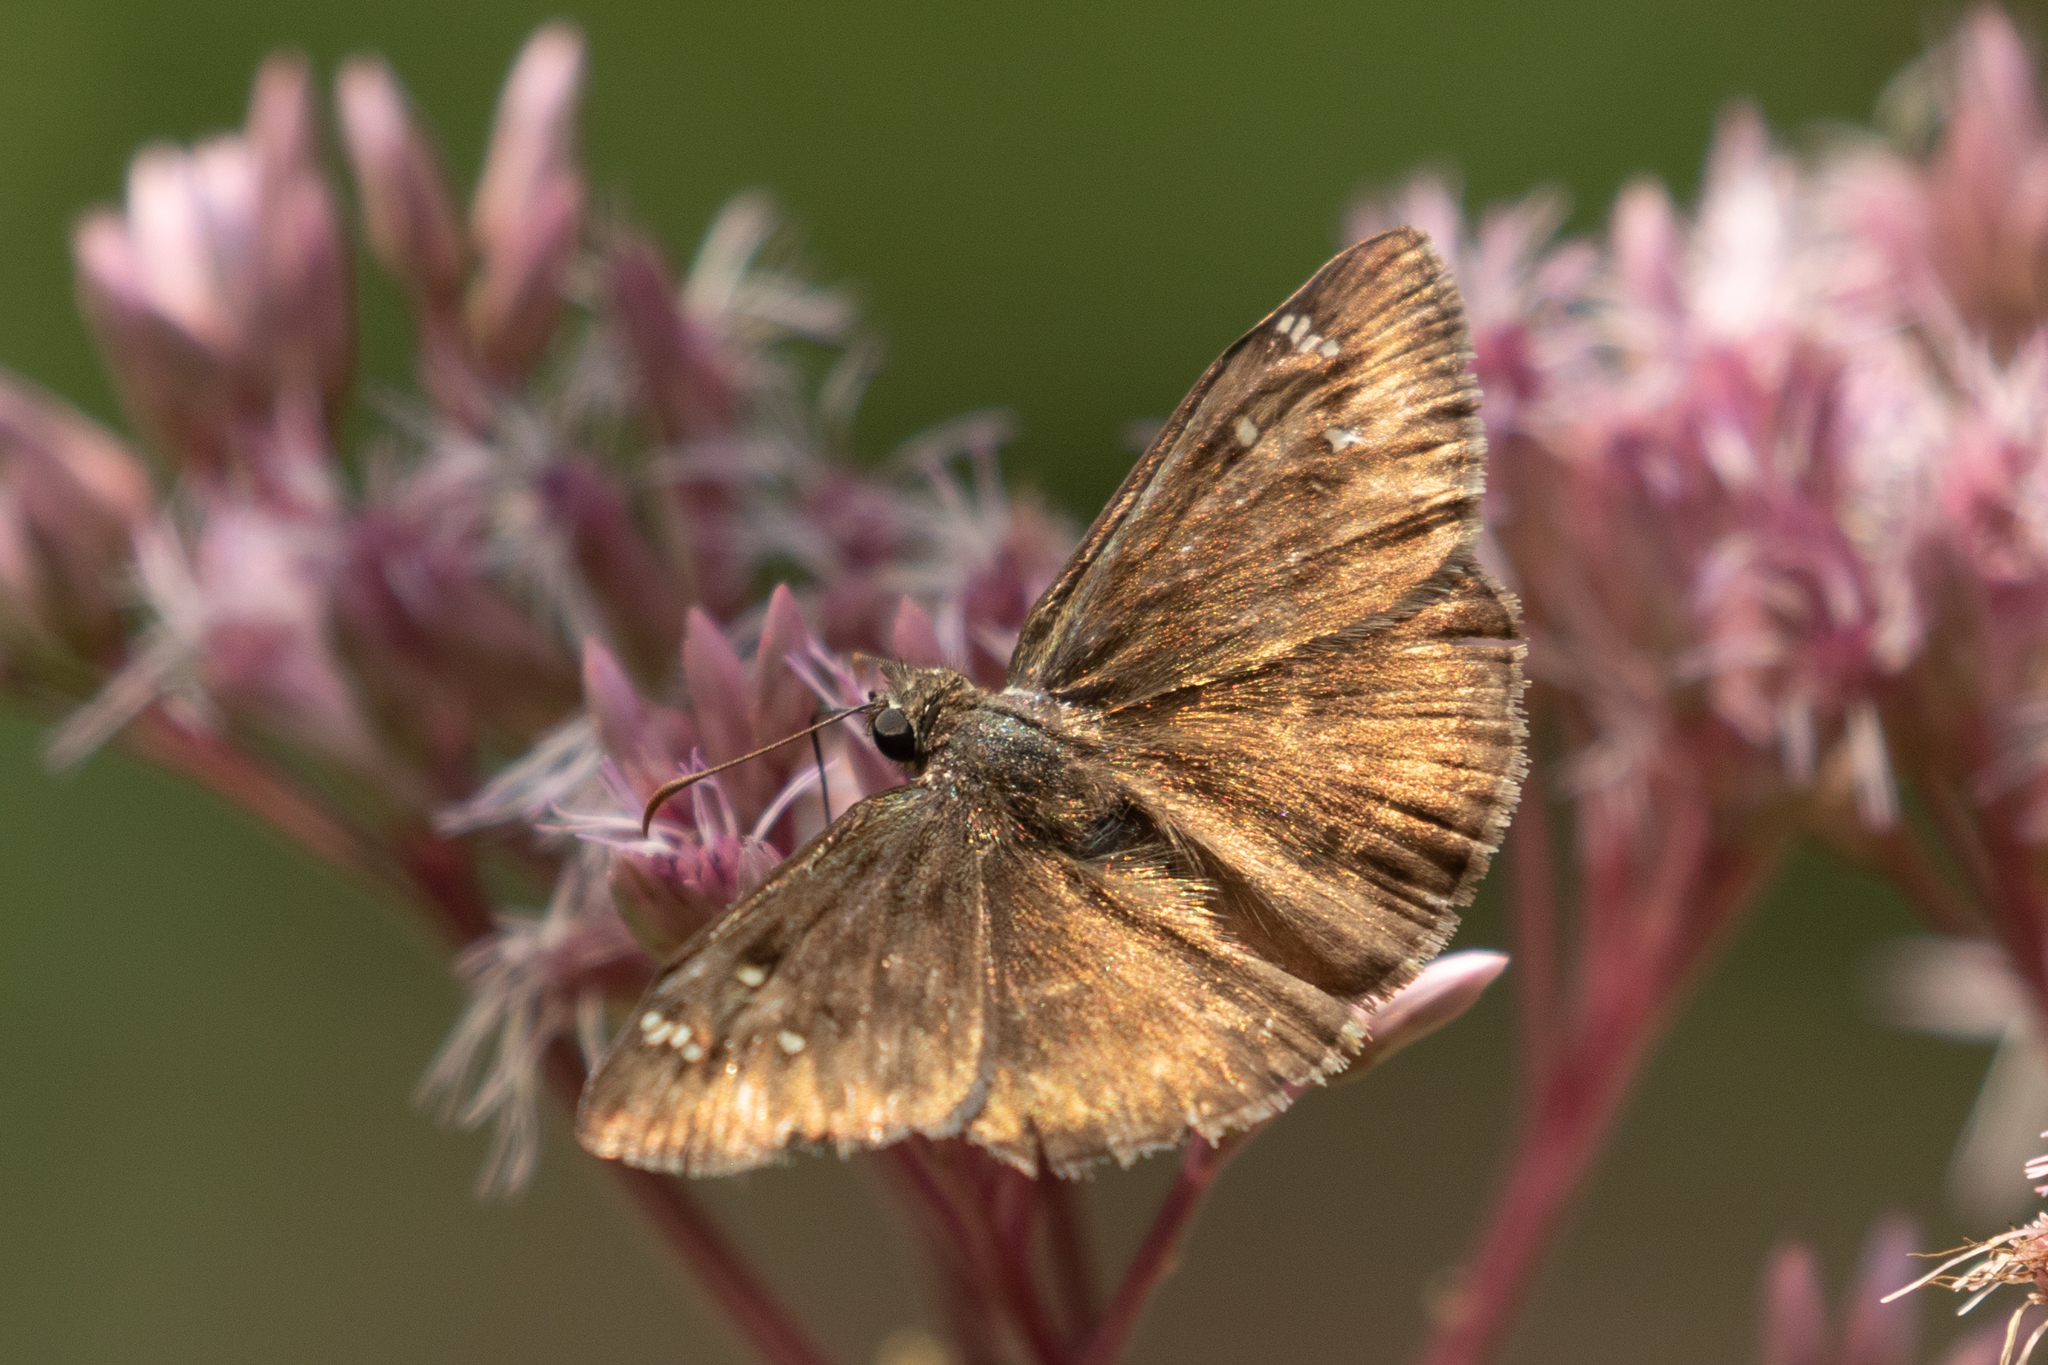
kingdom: Animalia
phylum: Arthropoda
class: Insecta
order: Lepidoptera
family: Hesperiidae
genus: Erynnis
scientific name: Erynnis horatius
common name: Horace's duskywing
